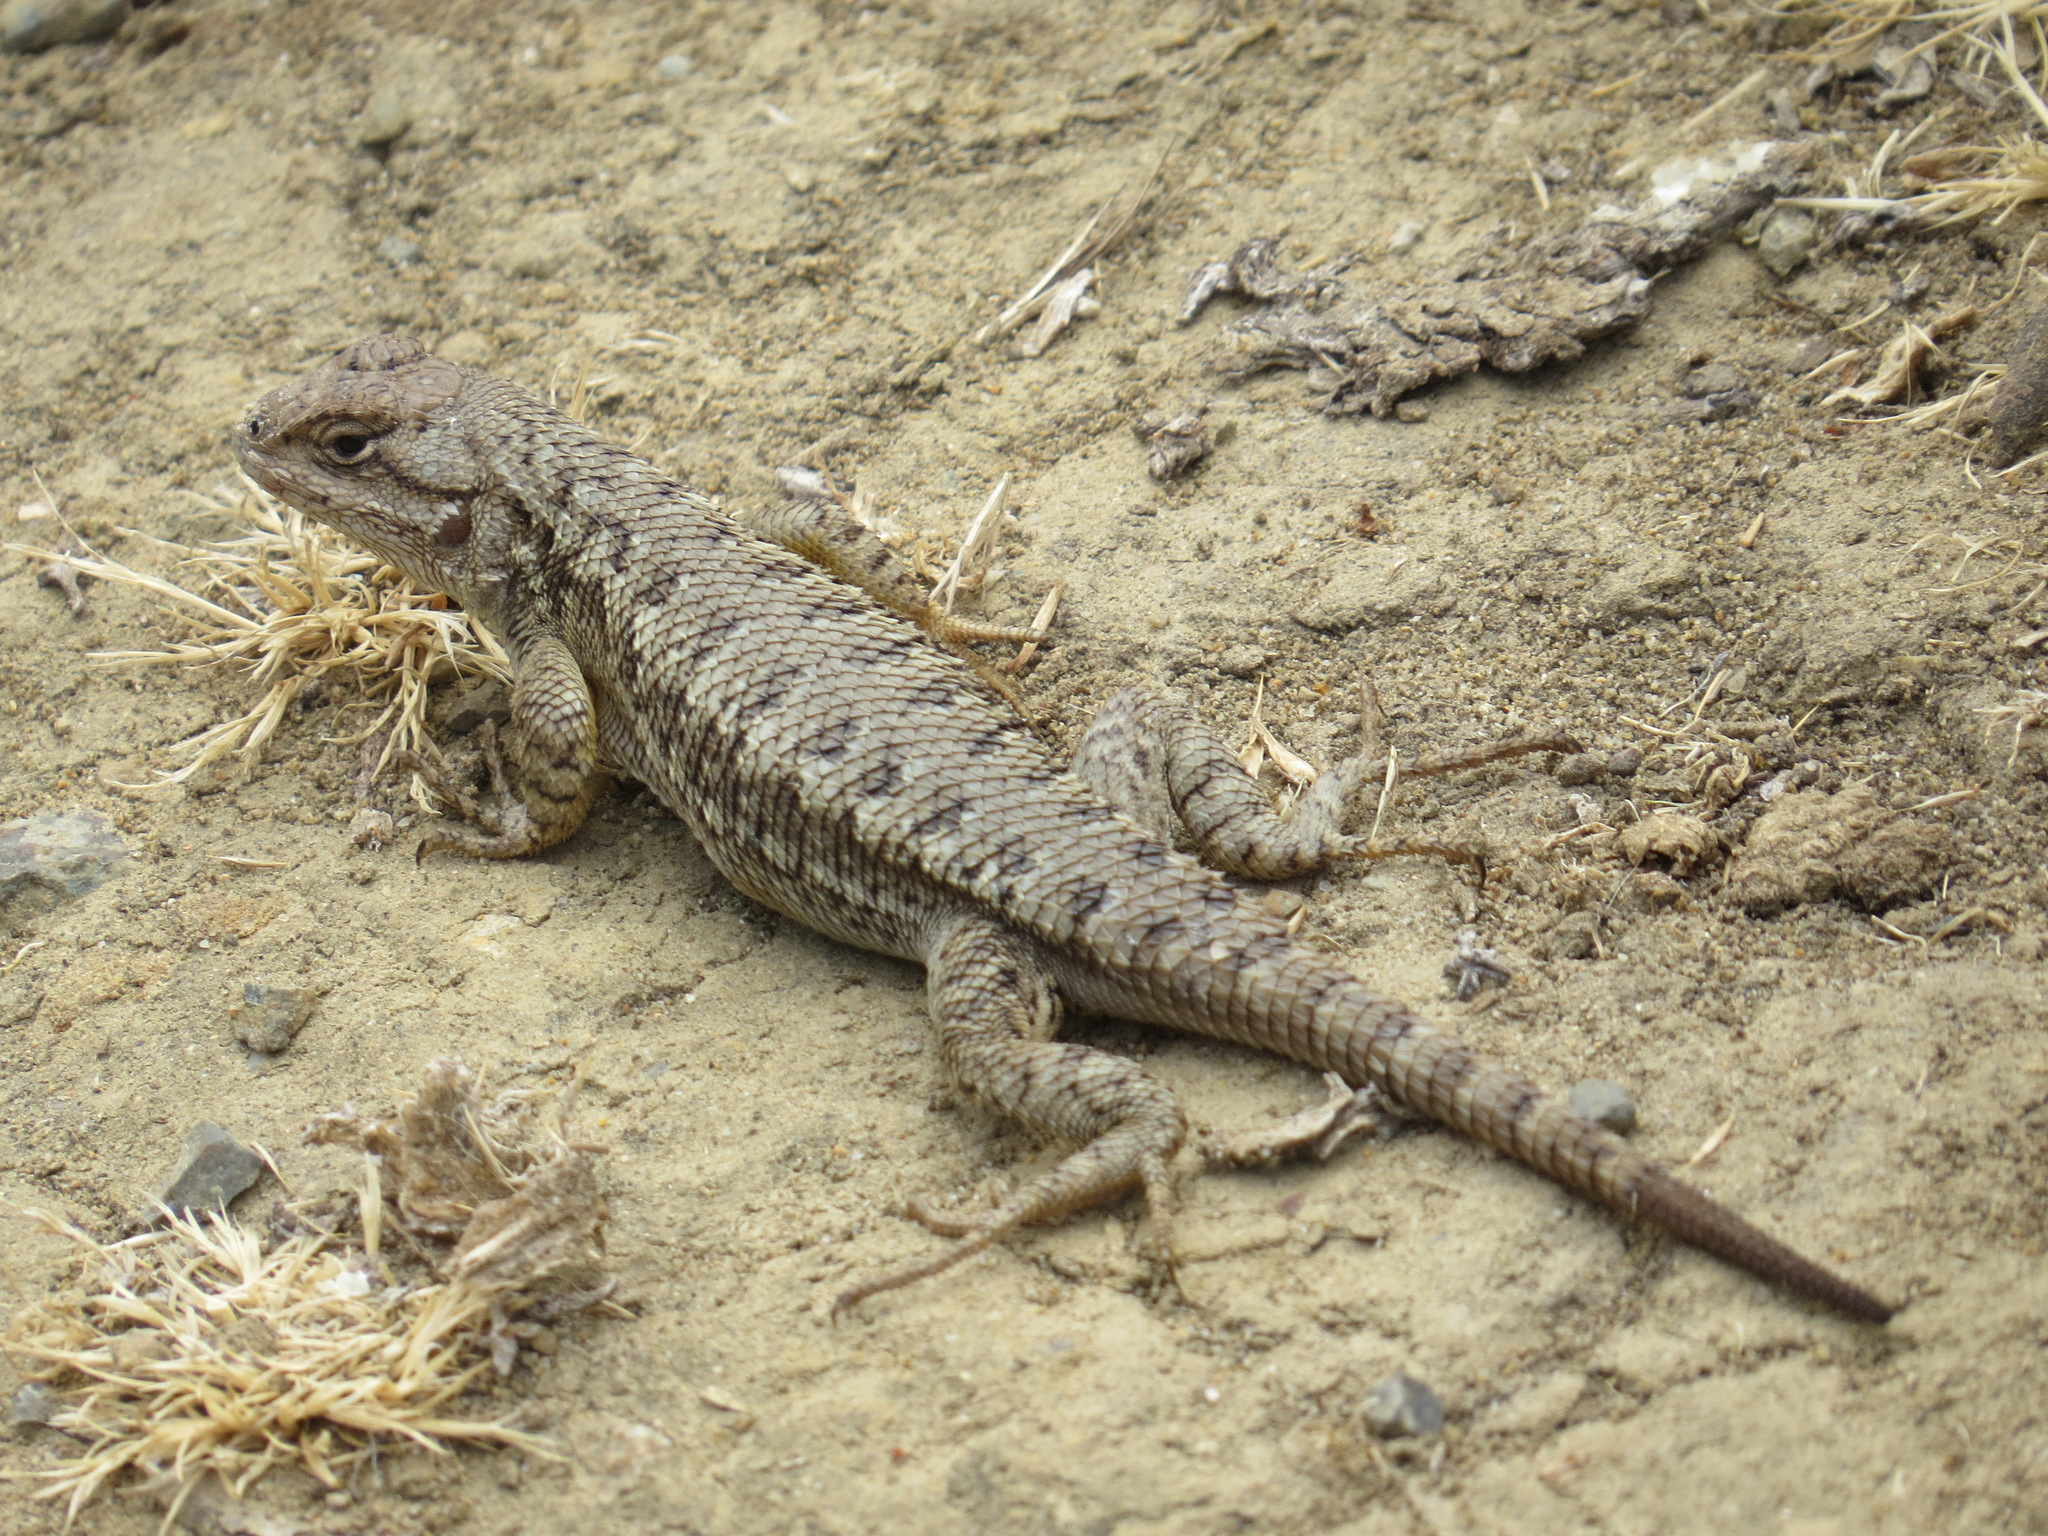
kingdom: Animalia
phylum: Chordata
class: Squamata
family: Phrynosomatidae
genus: Sceloporus
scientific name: Sceloporus occidentalis
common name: Western fence lizard
